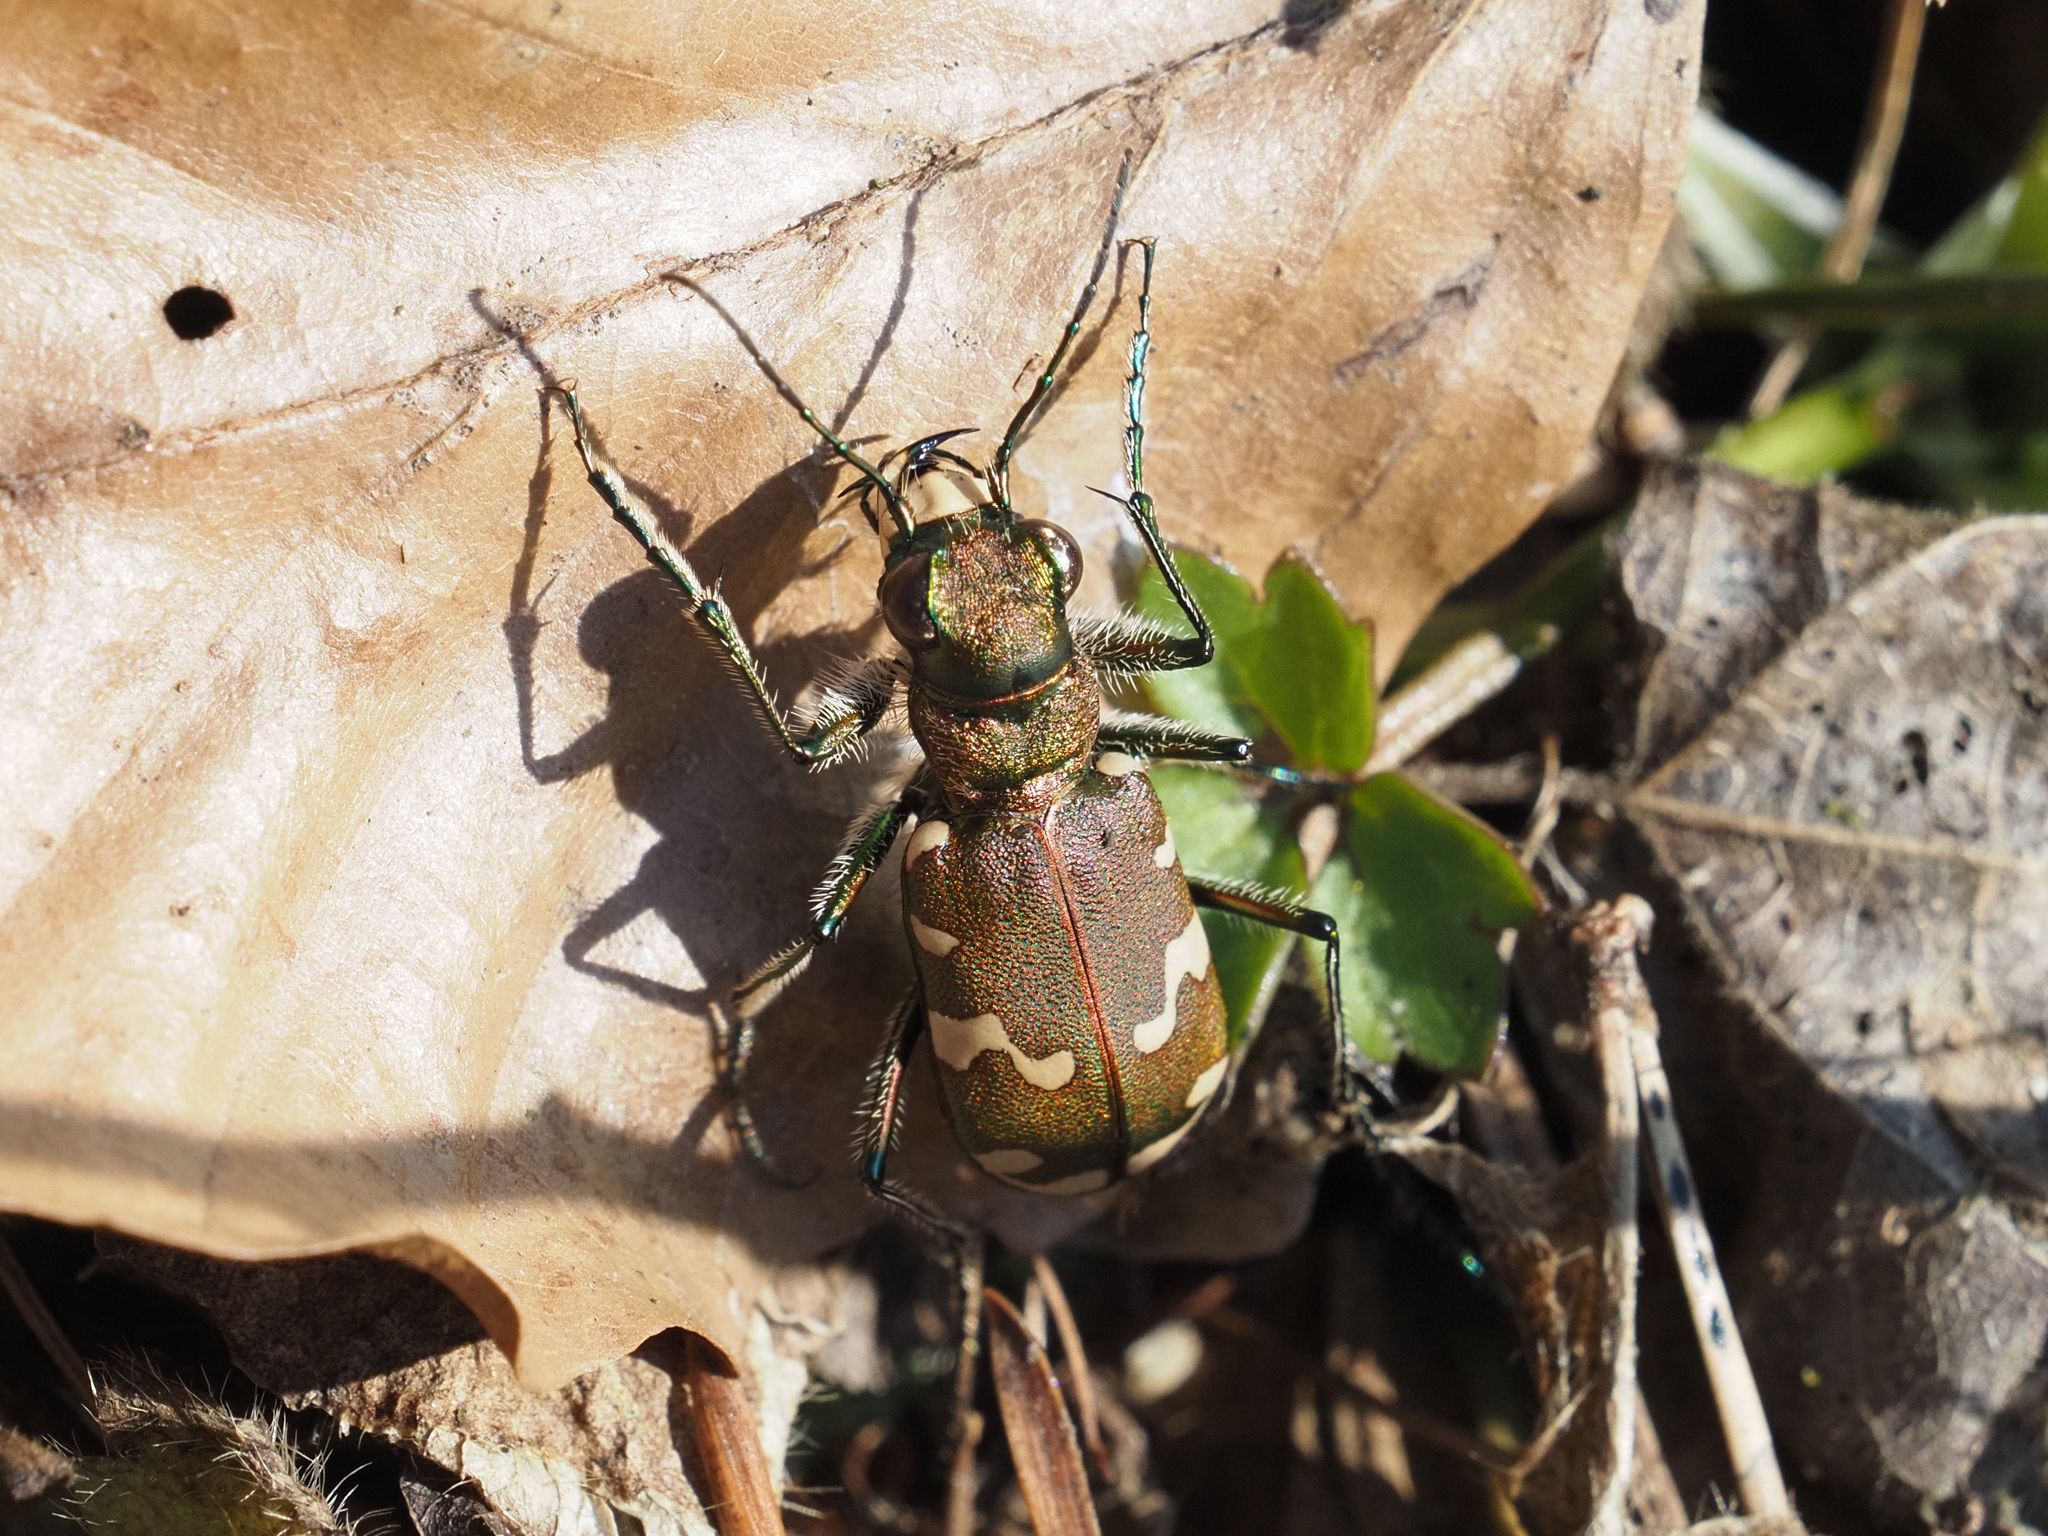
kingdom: Animalia
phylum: Arthropoda
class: Insecta
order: Coleoptera
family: Carabidae
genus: Cicindela
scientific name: Cicindela sylvicola
